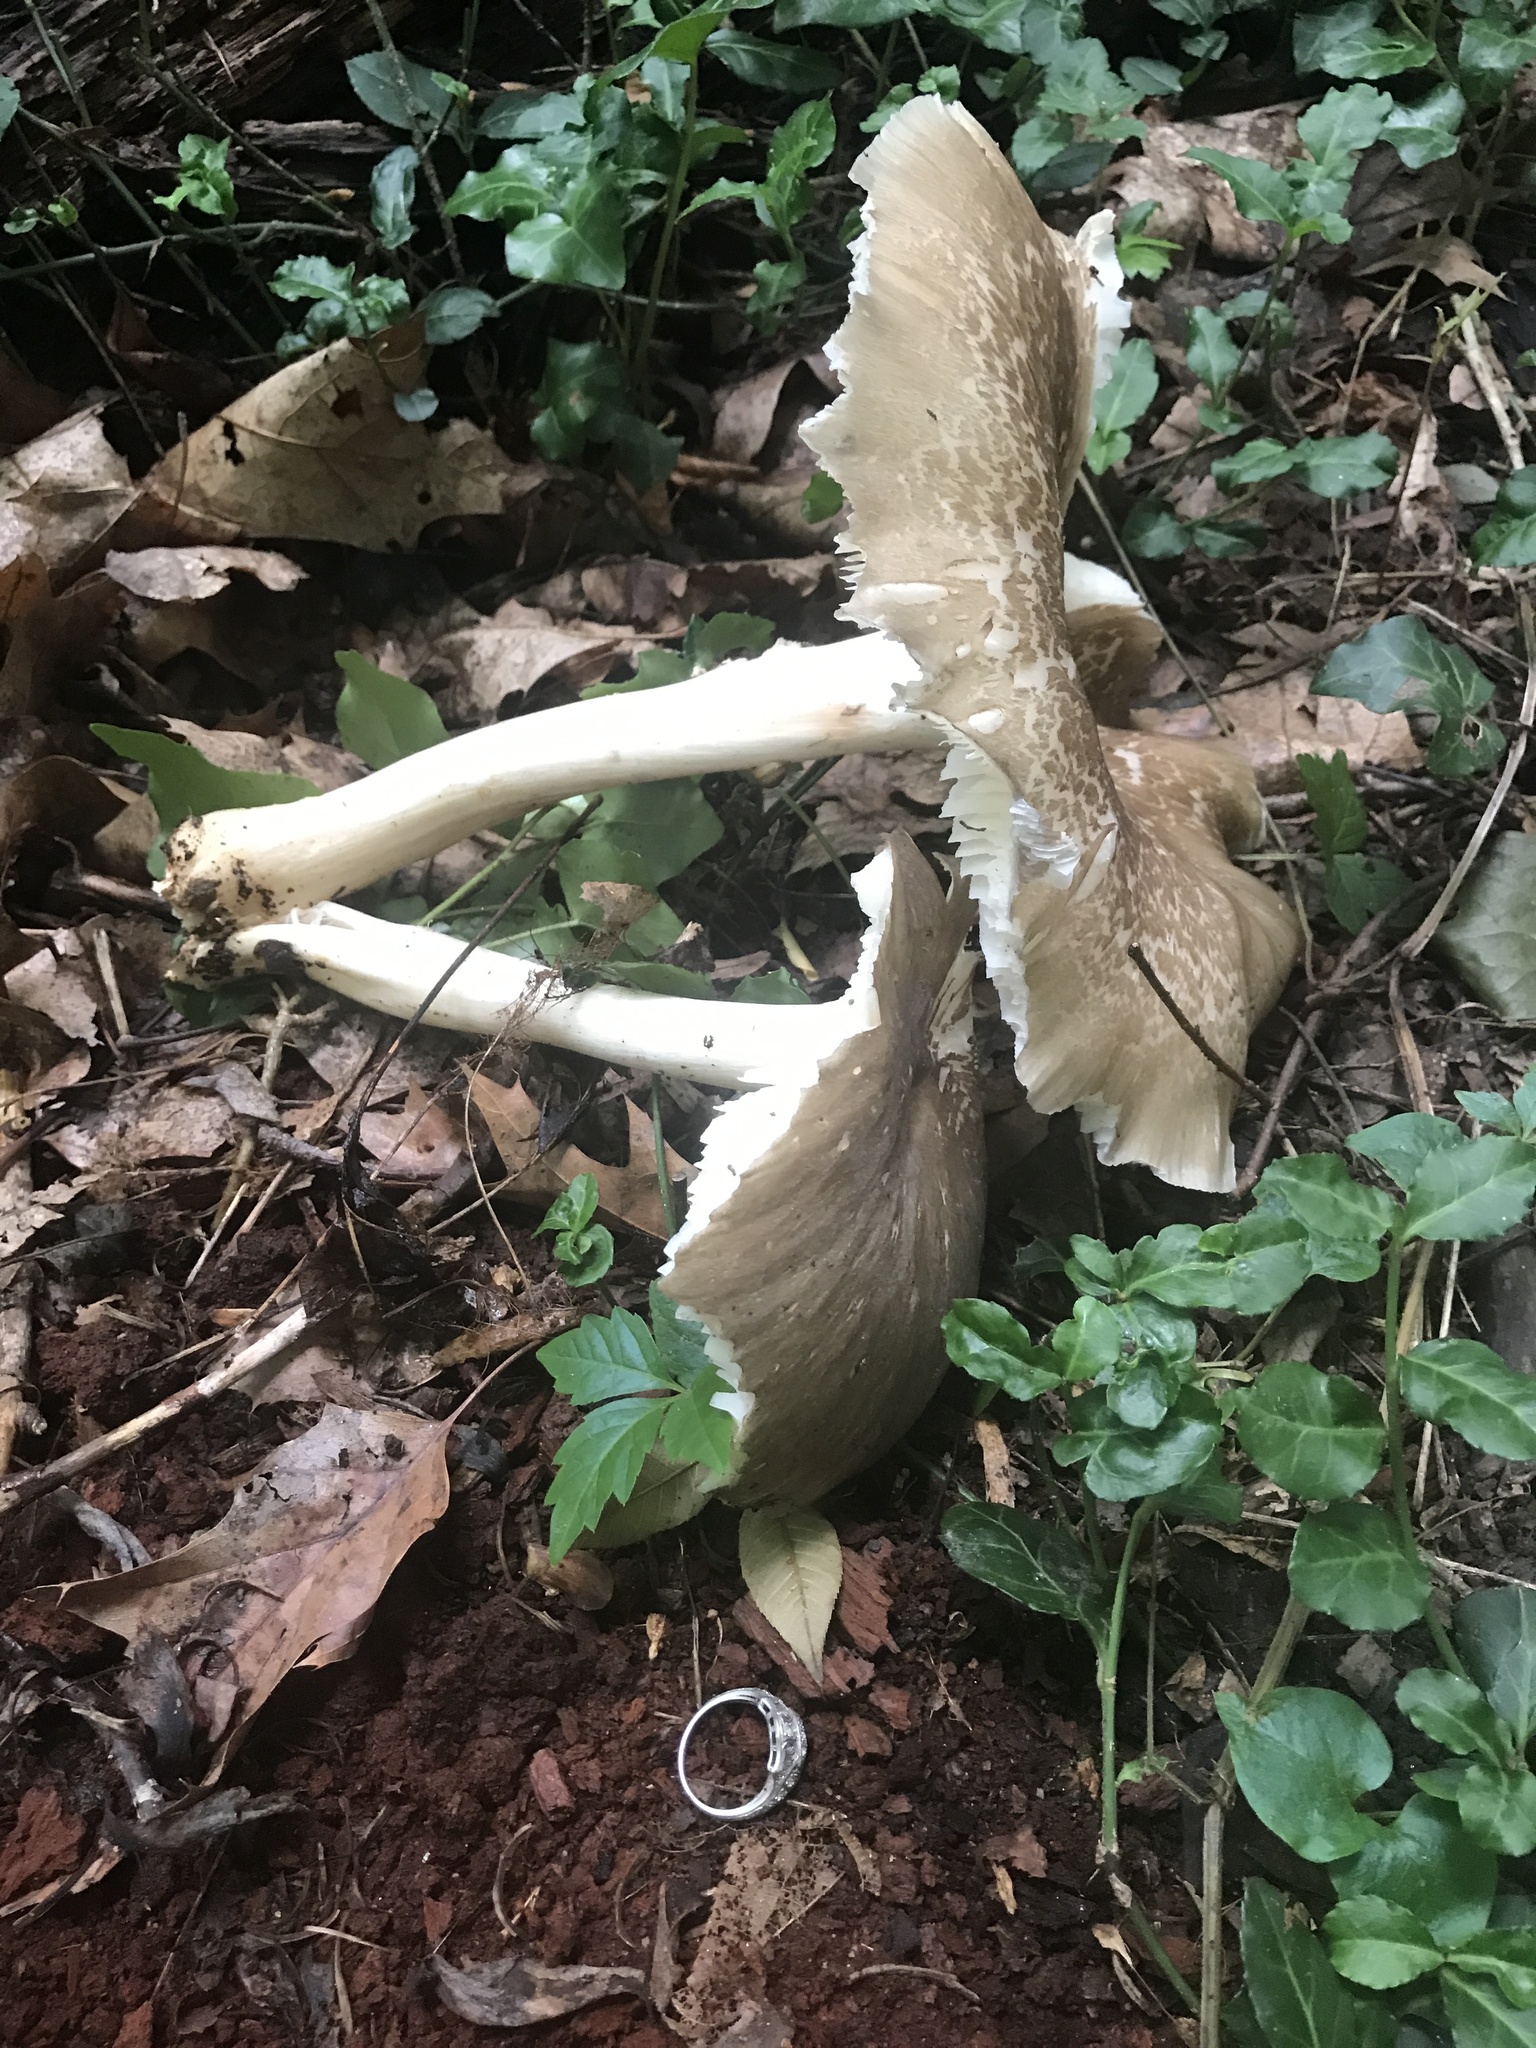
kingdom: Fungi
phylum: Basidiomycota
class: Agaricomycetes
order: Agaricales
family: Tricholomataceae
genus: Megacollybia
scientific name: Megacollybia rodmanii
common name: Eastern american platterful mushroom
